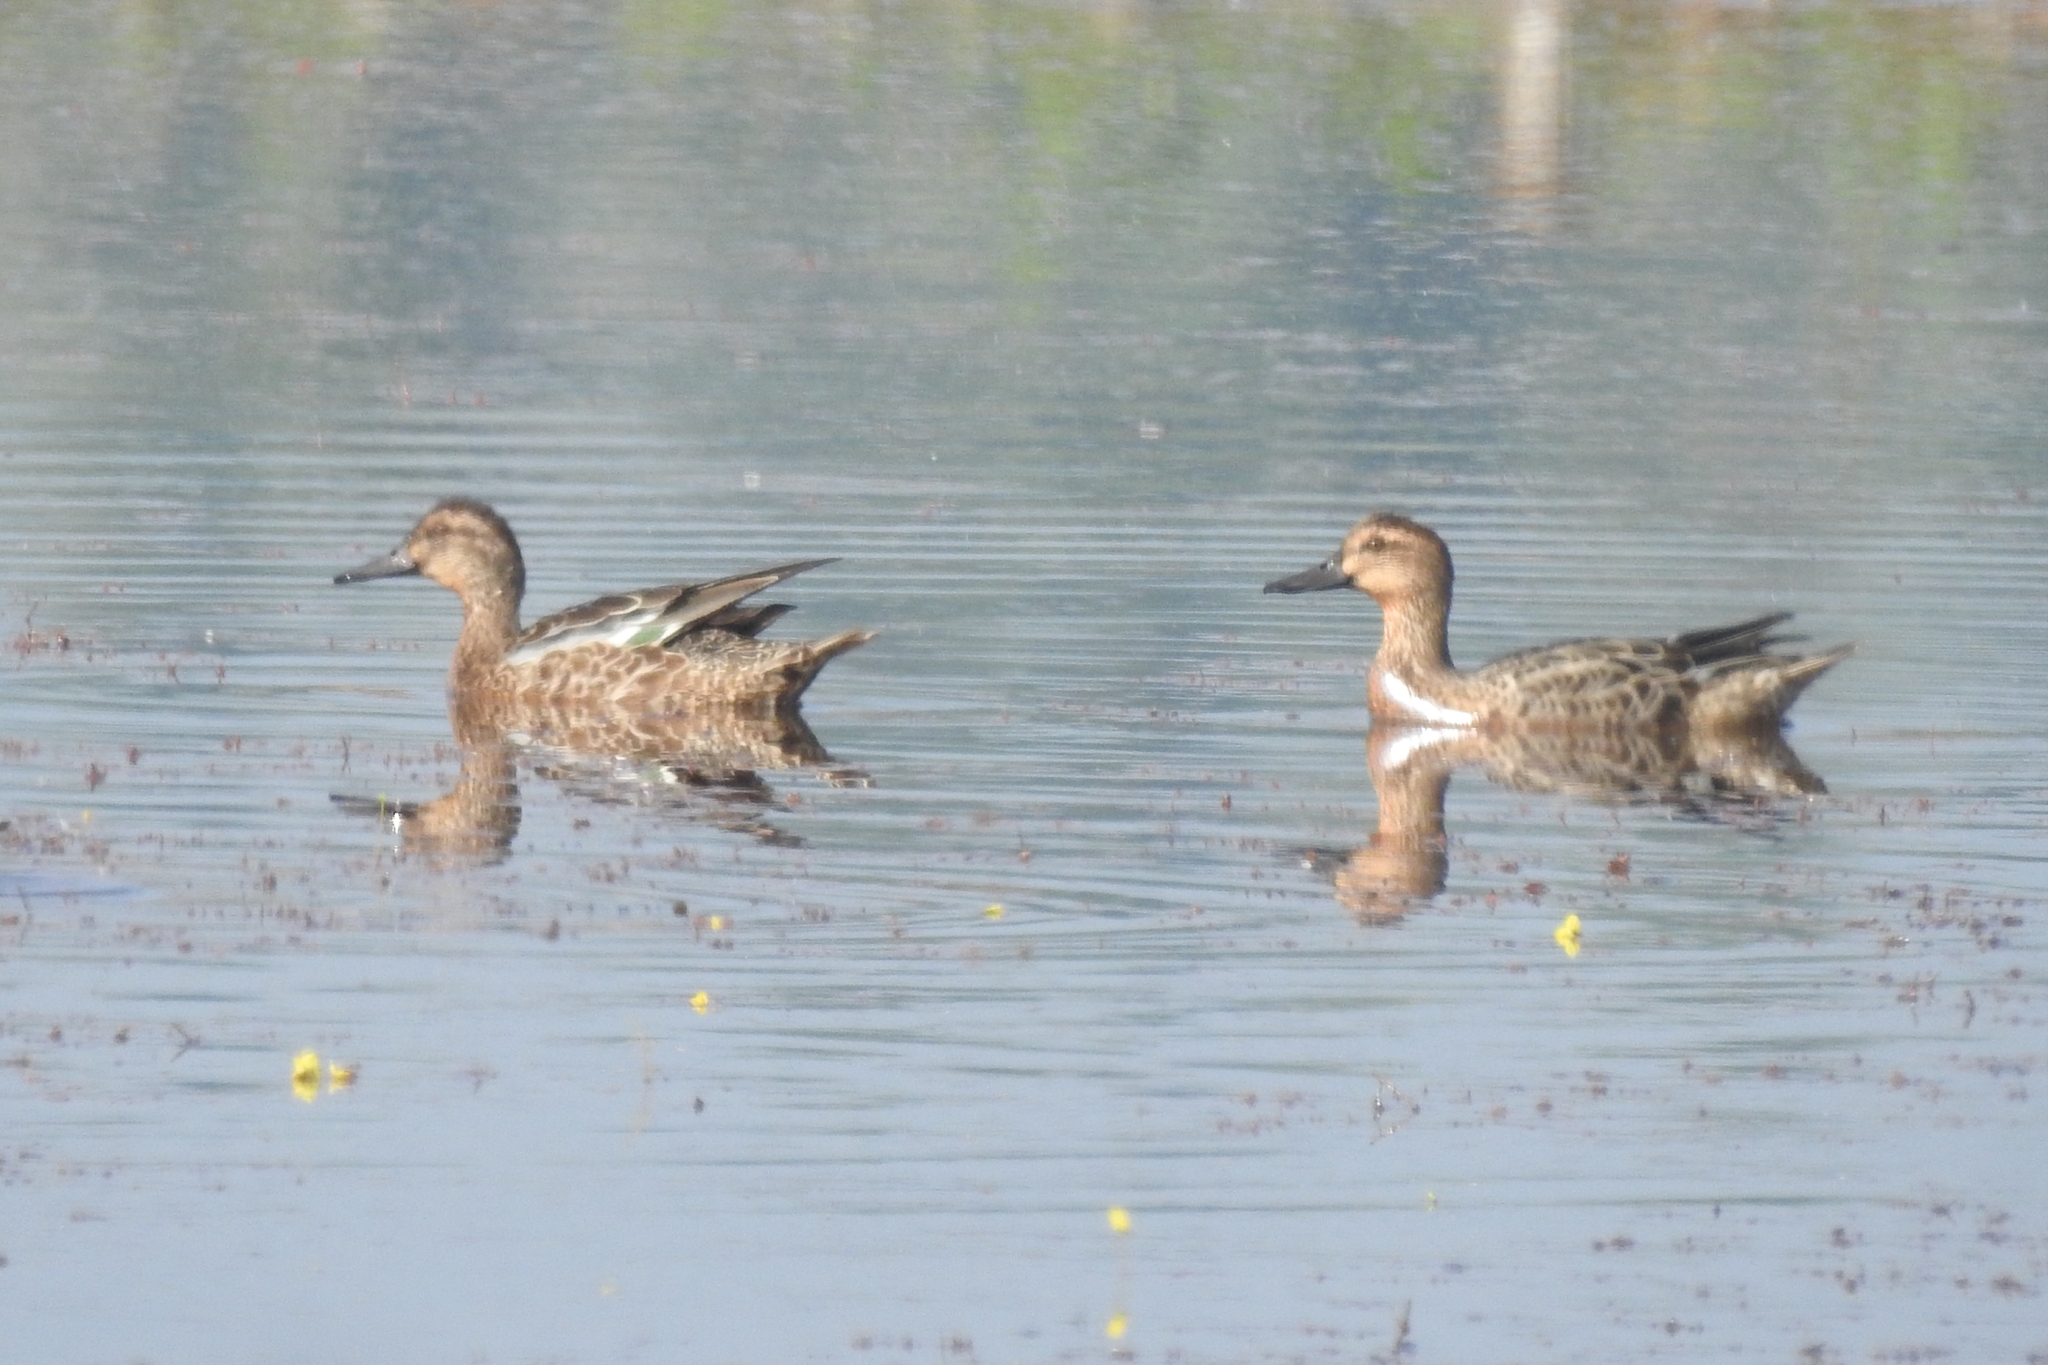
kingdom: Animalia
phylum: Chordata
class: Aves
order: Anseriformes
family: Anatidae
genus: Spatula
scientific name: Spatula querquedula
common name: Garganey
